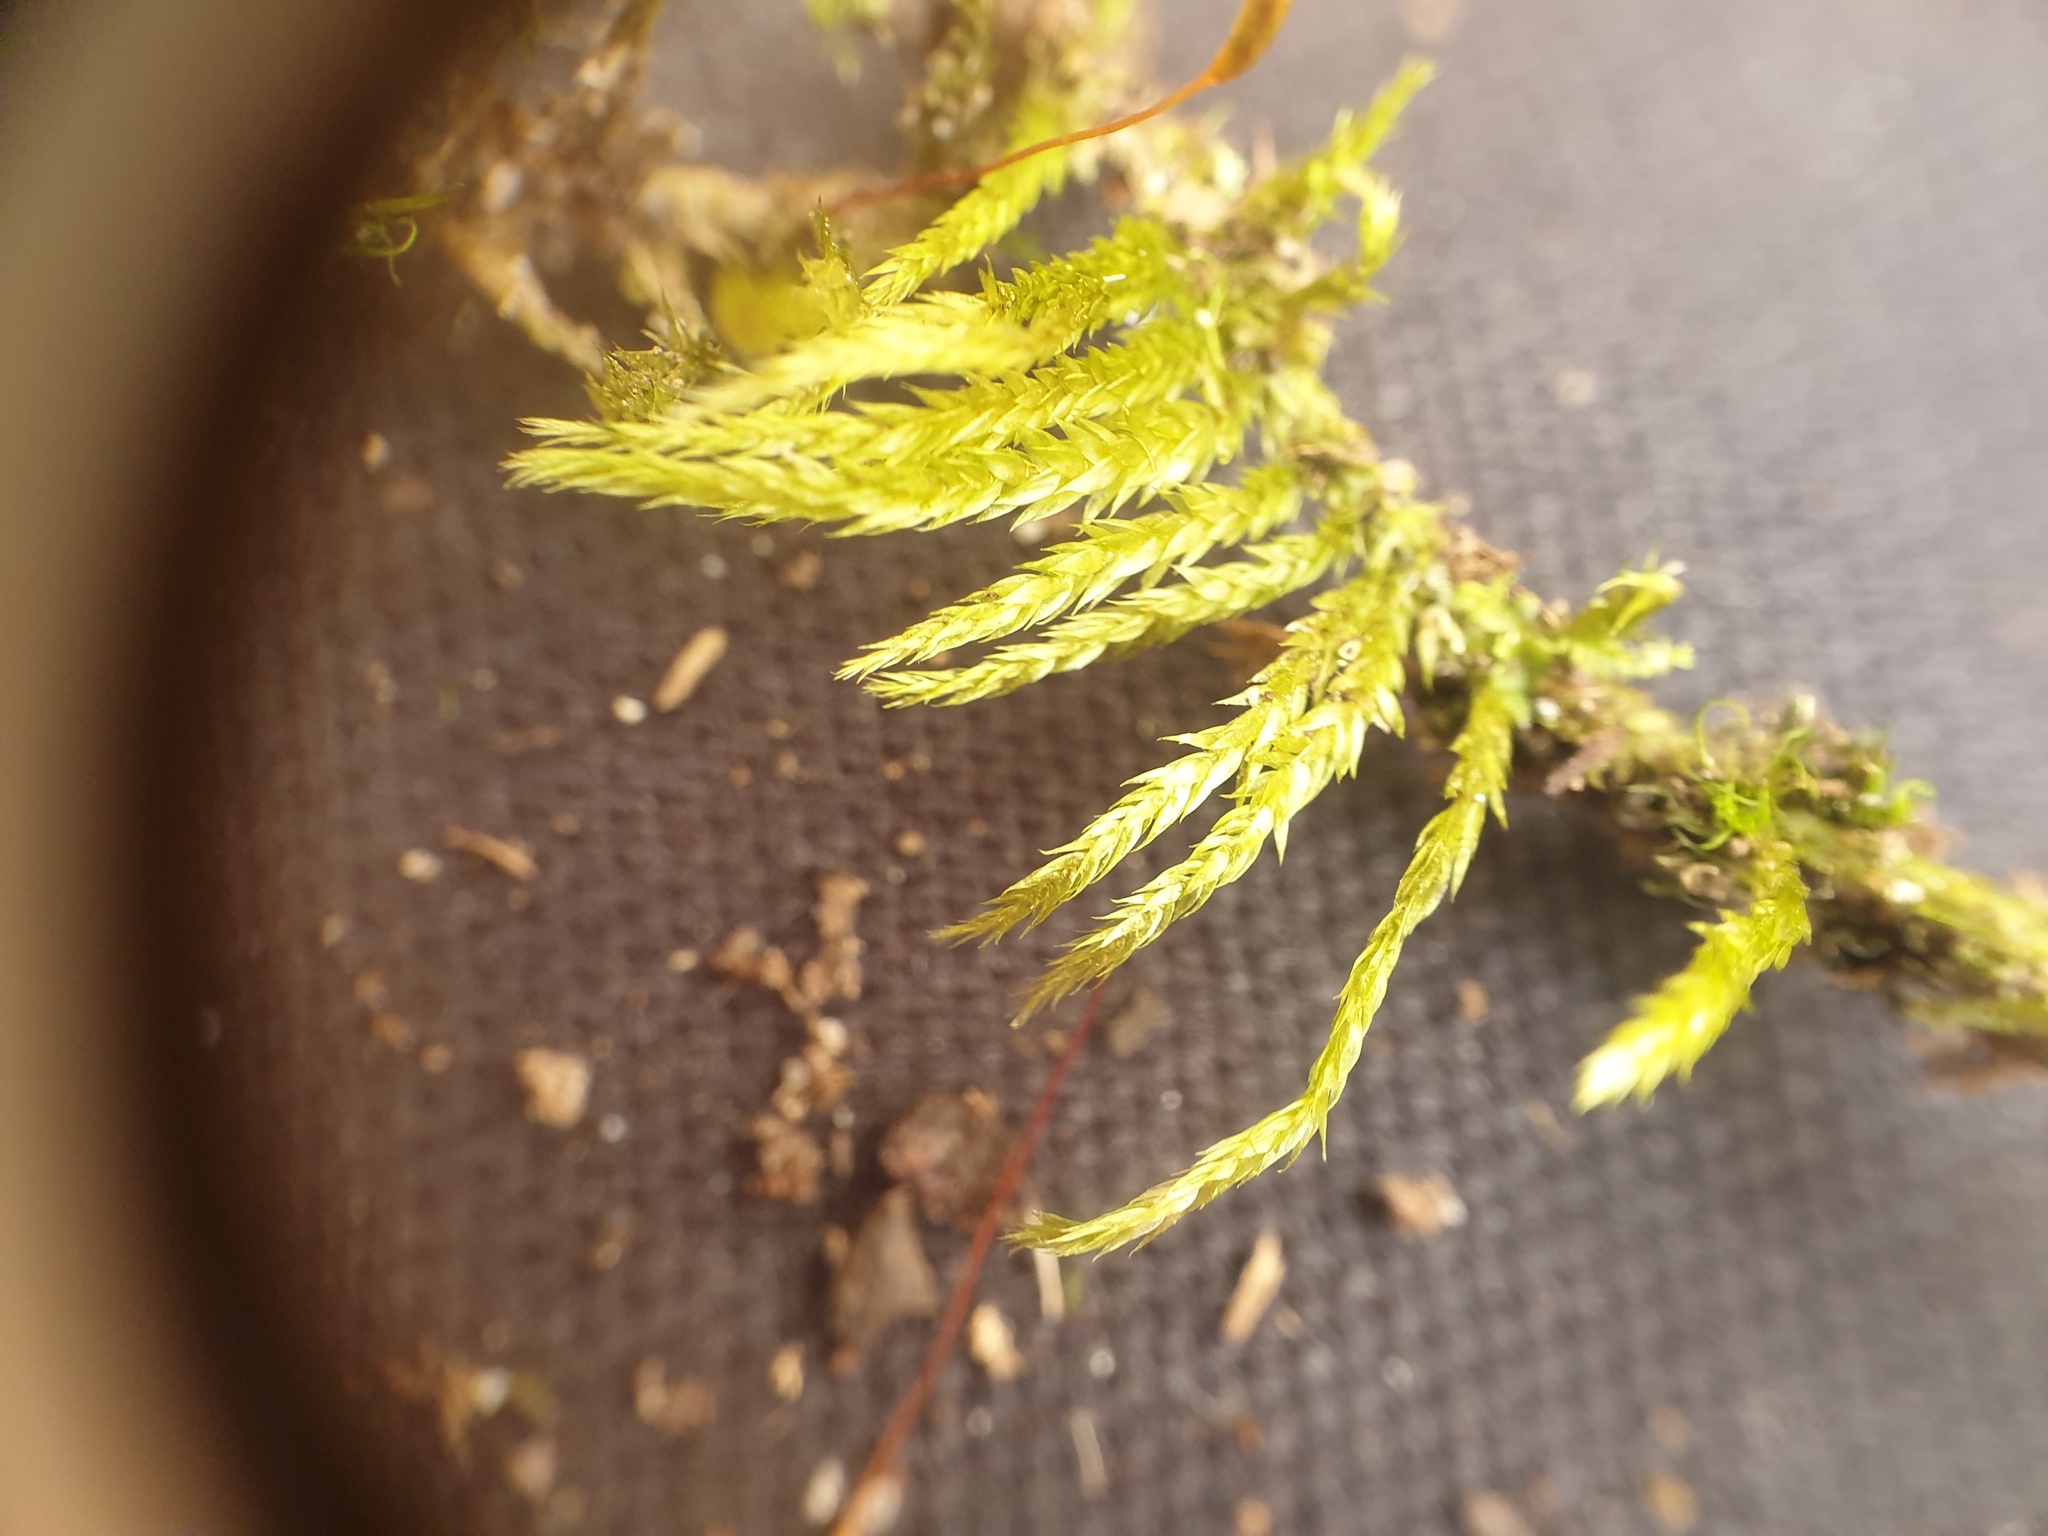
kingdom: Plantae
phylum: Bryophyta
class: Bryopsida
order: Hypnales
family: Callicladiaceae
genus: Callicladium
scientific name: Callicladium haldanianum
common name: Beautiful branch moss
